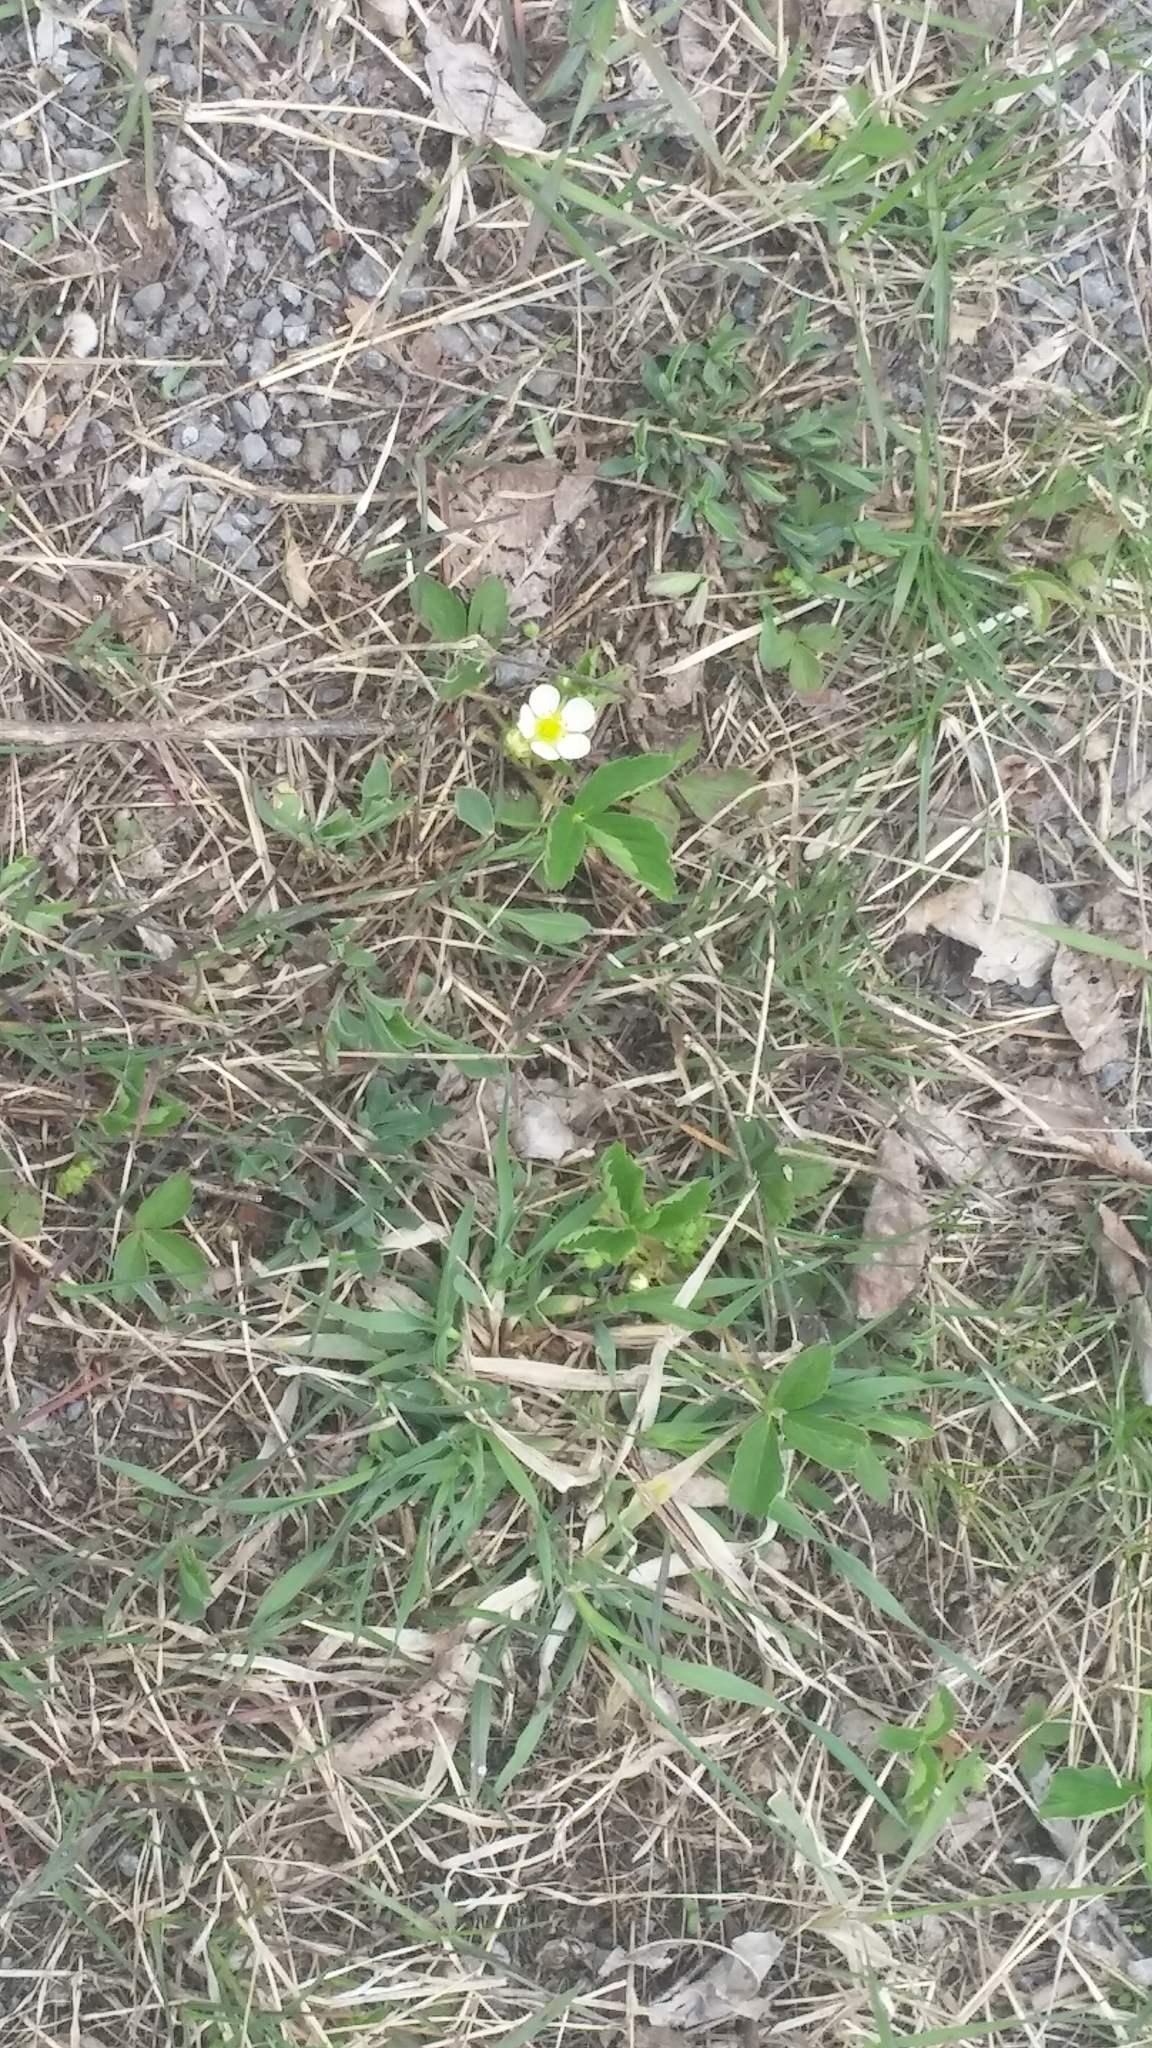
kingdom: Plantae
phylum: Tracheophyta
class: Magnoliopsida
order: Rosales
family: Rosaceae
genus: Fragaria
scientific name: Fragaria virginiana
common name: Thickleaved wild strawberry
